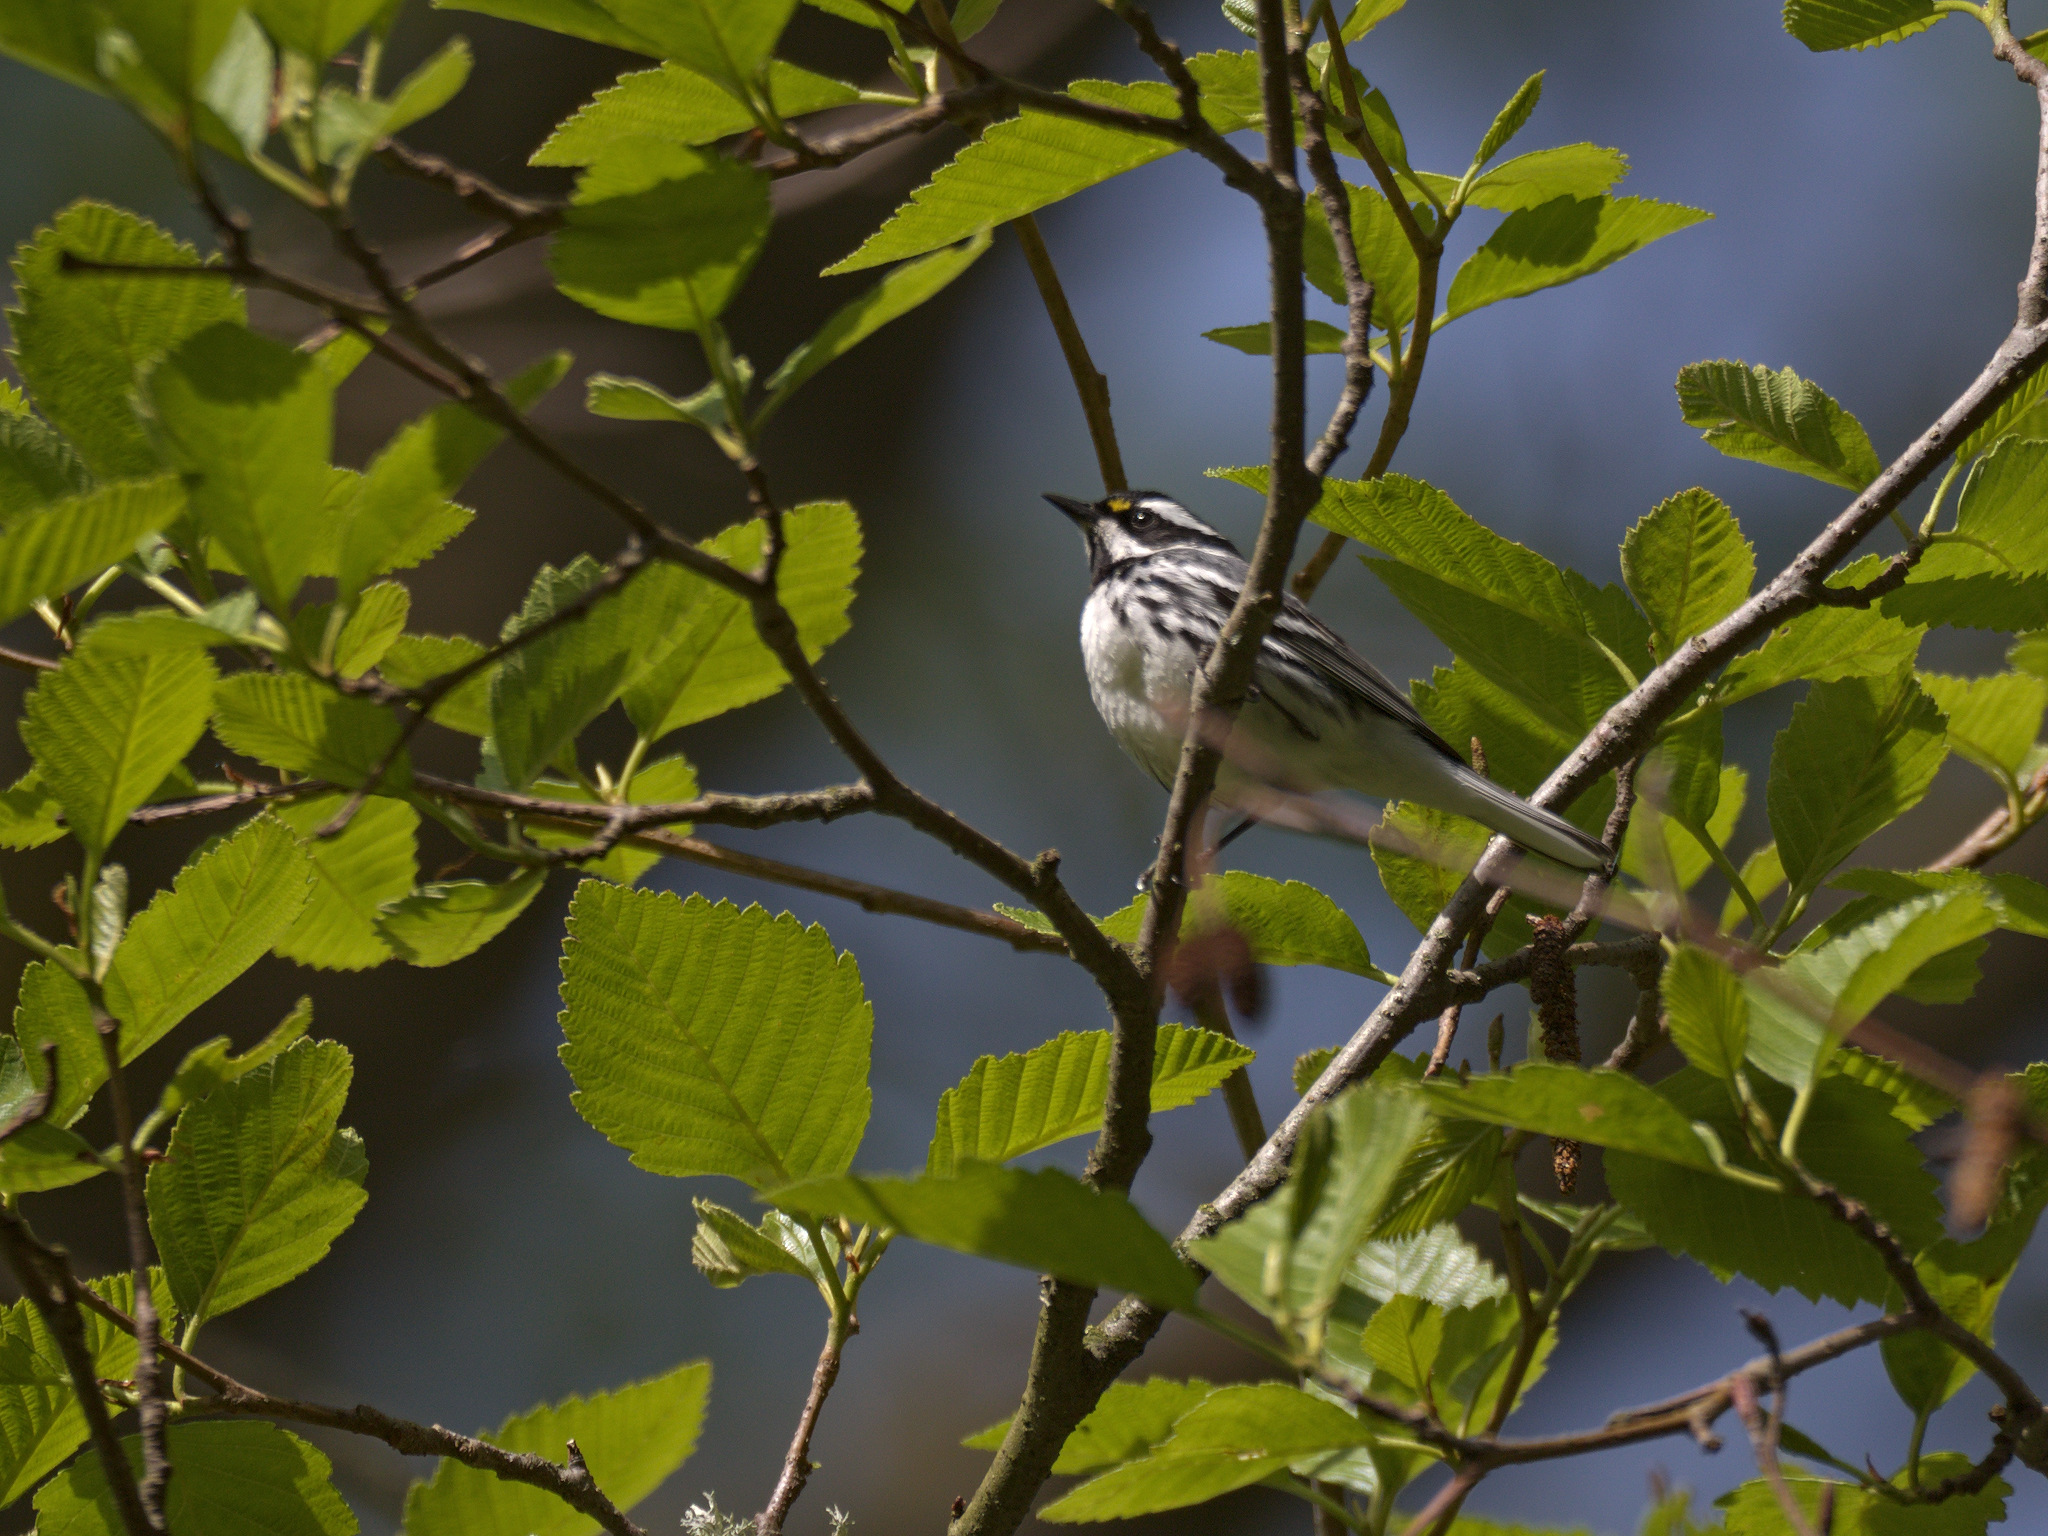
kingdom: Animalia
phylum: Chordata
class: Aves
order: Passeriformes
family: Parulidae
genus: Setophaga
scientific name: Setophaga nigrescens
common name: Black-throated gray warbler
